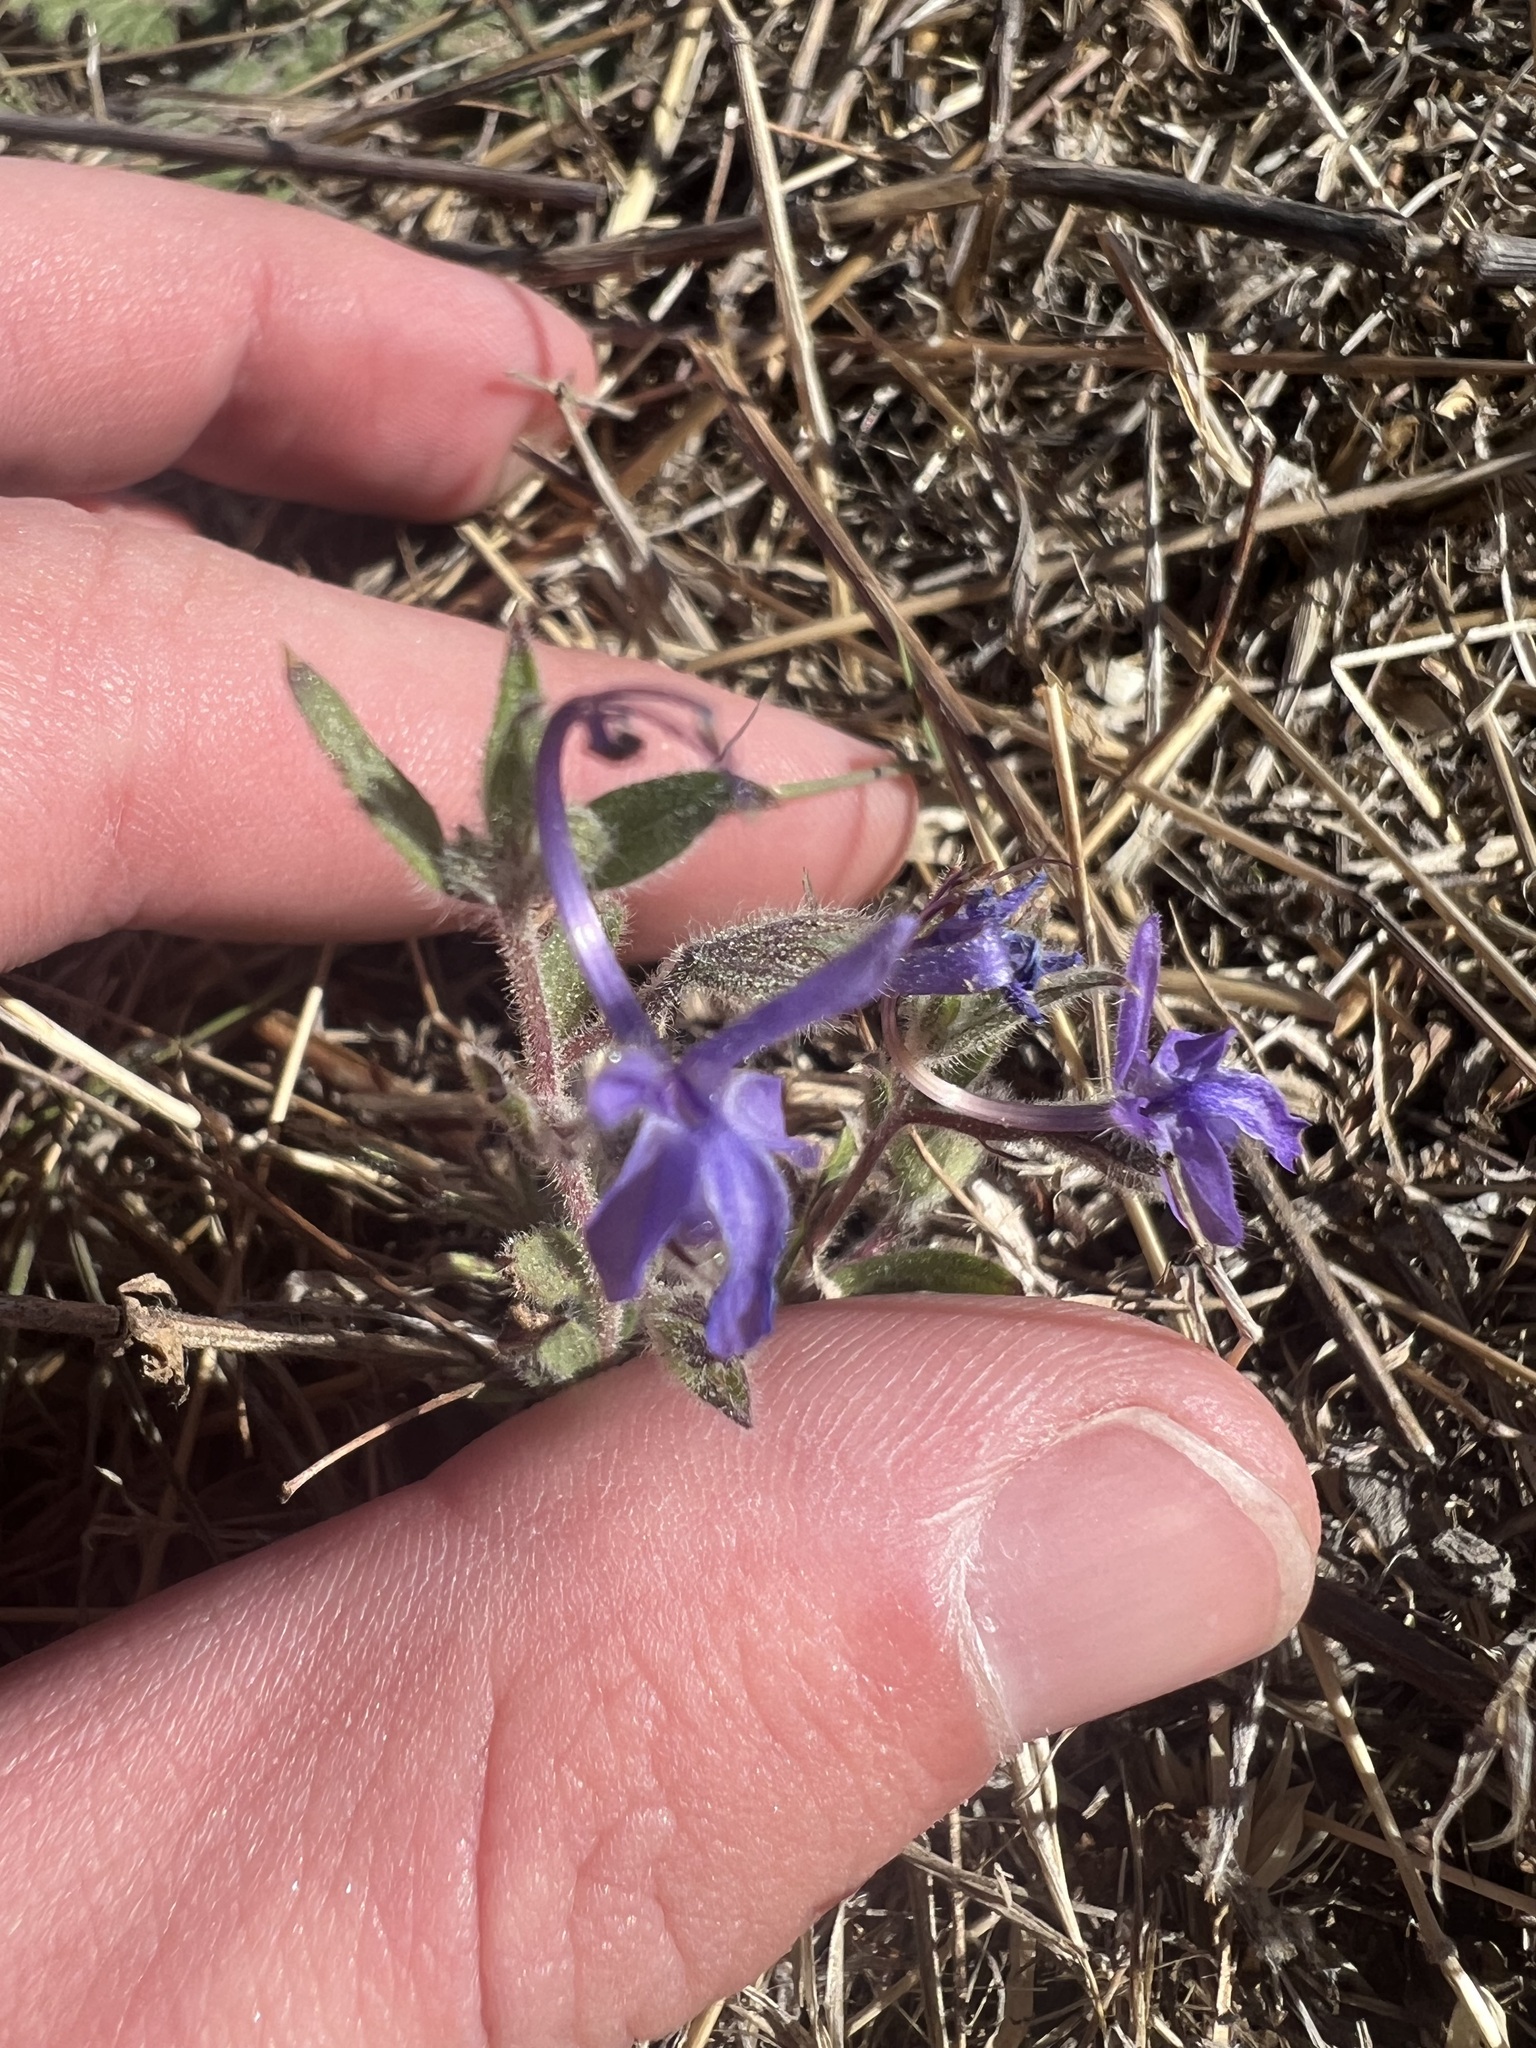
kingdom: Plantae
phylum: Tracheophyta
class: Magnoliopsida
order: Lamiales
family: Lamiaceae
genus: Trichostema
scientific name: Trichostema lanceolatum
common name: Vinegar-weed
